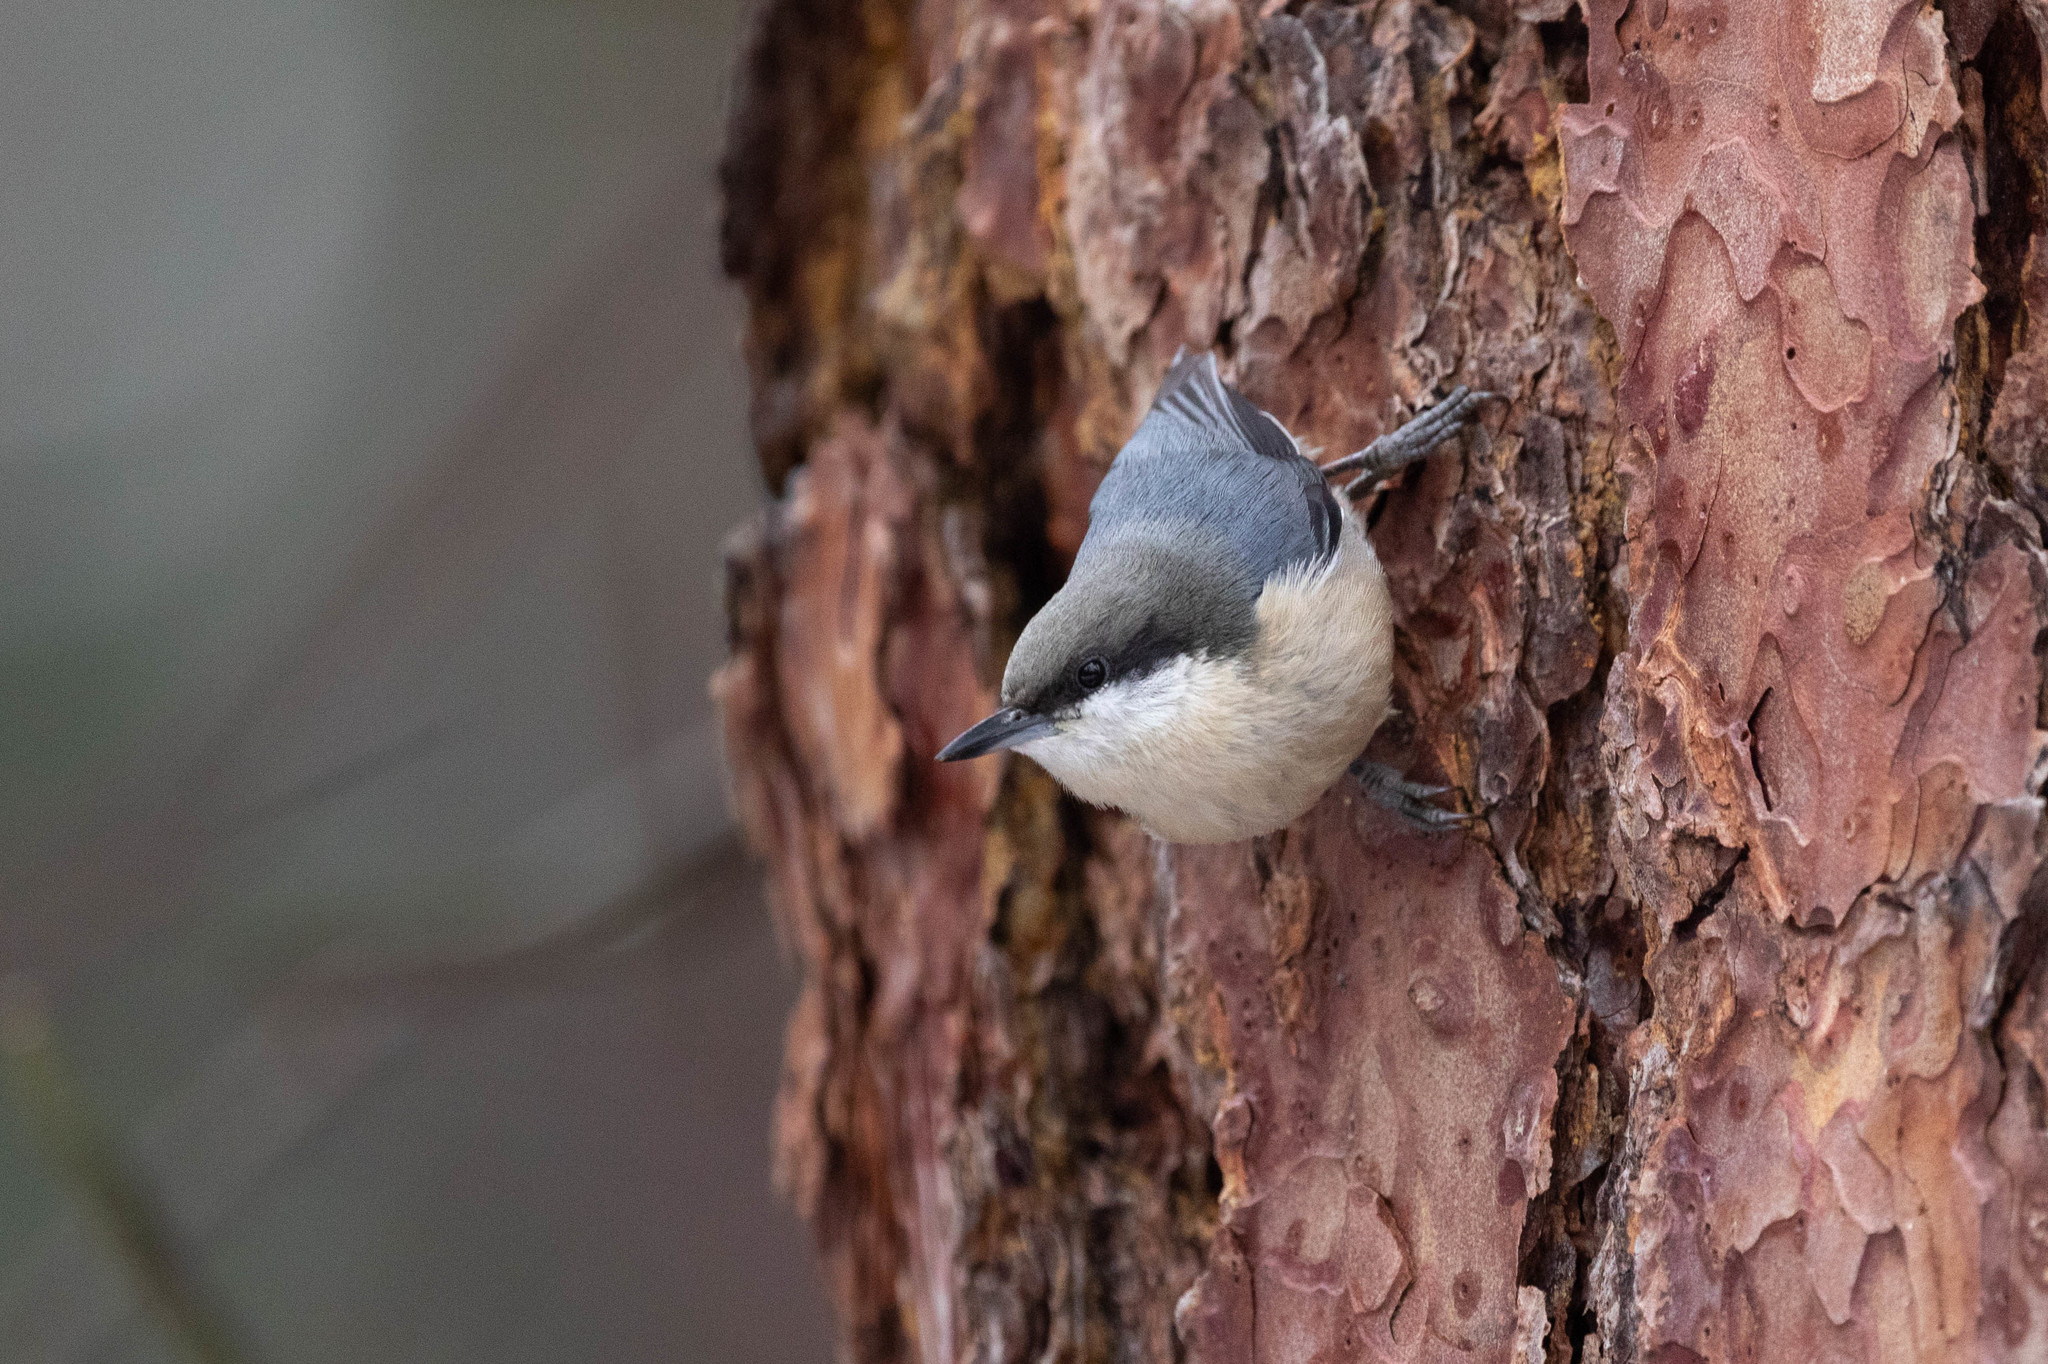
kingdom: Animalia
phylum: Chordata
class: Aves
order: Passeriformes
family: Sittidae
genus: Sitta
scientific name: Sitta pygmaea
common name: Pygmy nuthatch
